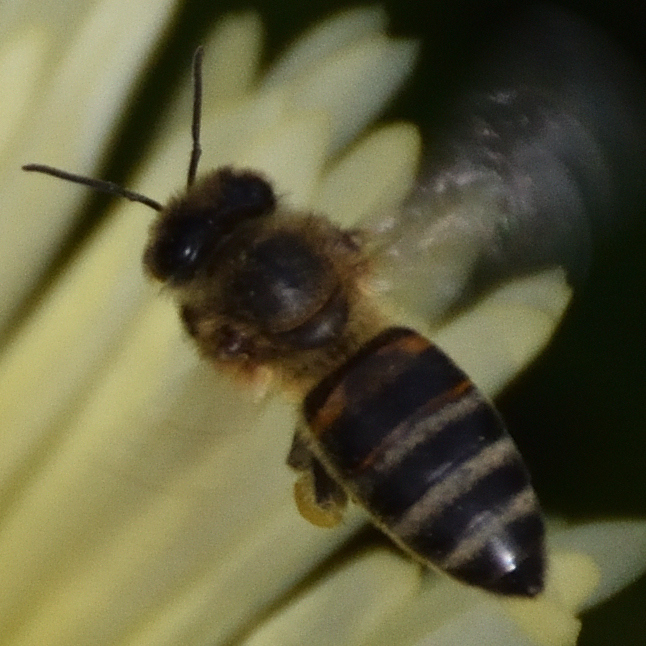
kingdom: Animalia
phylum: Arthropoda
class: Insecta
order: Hymenoptera
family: Apidae
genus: Apis
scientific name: Apis mellifera
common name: Honey bee
